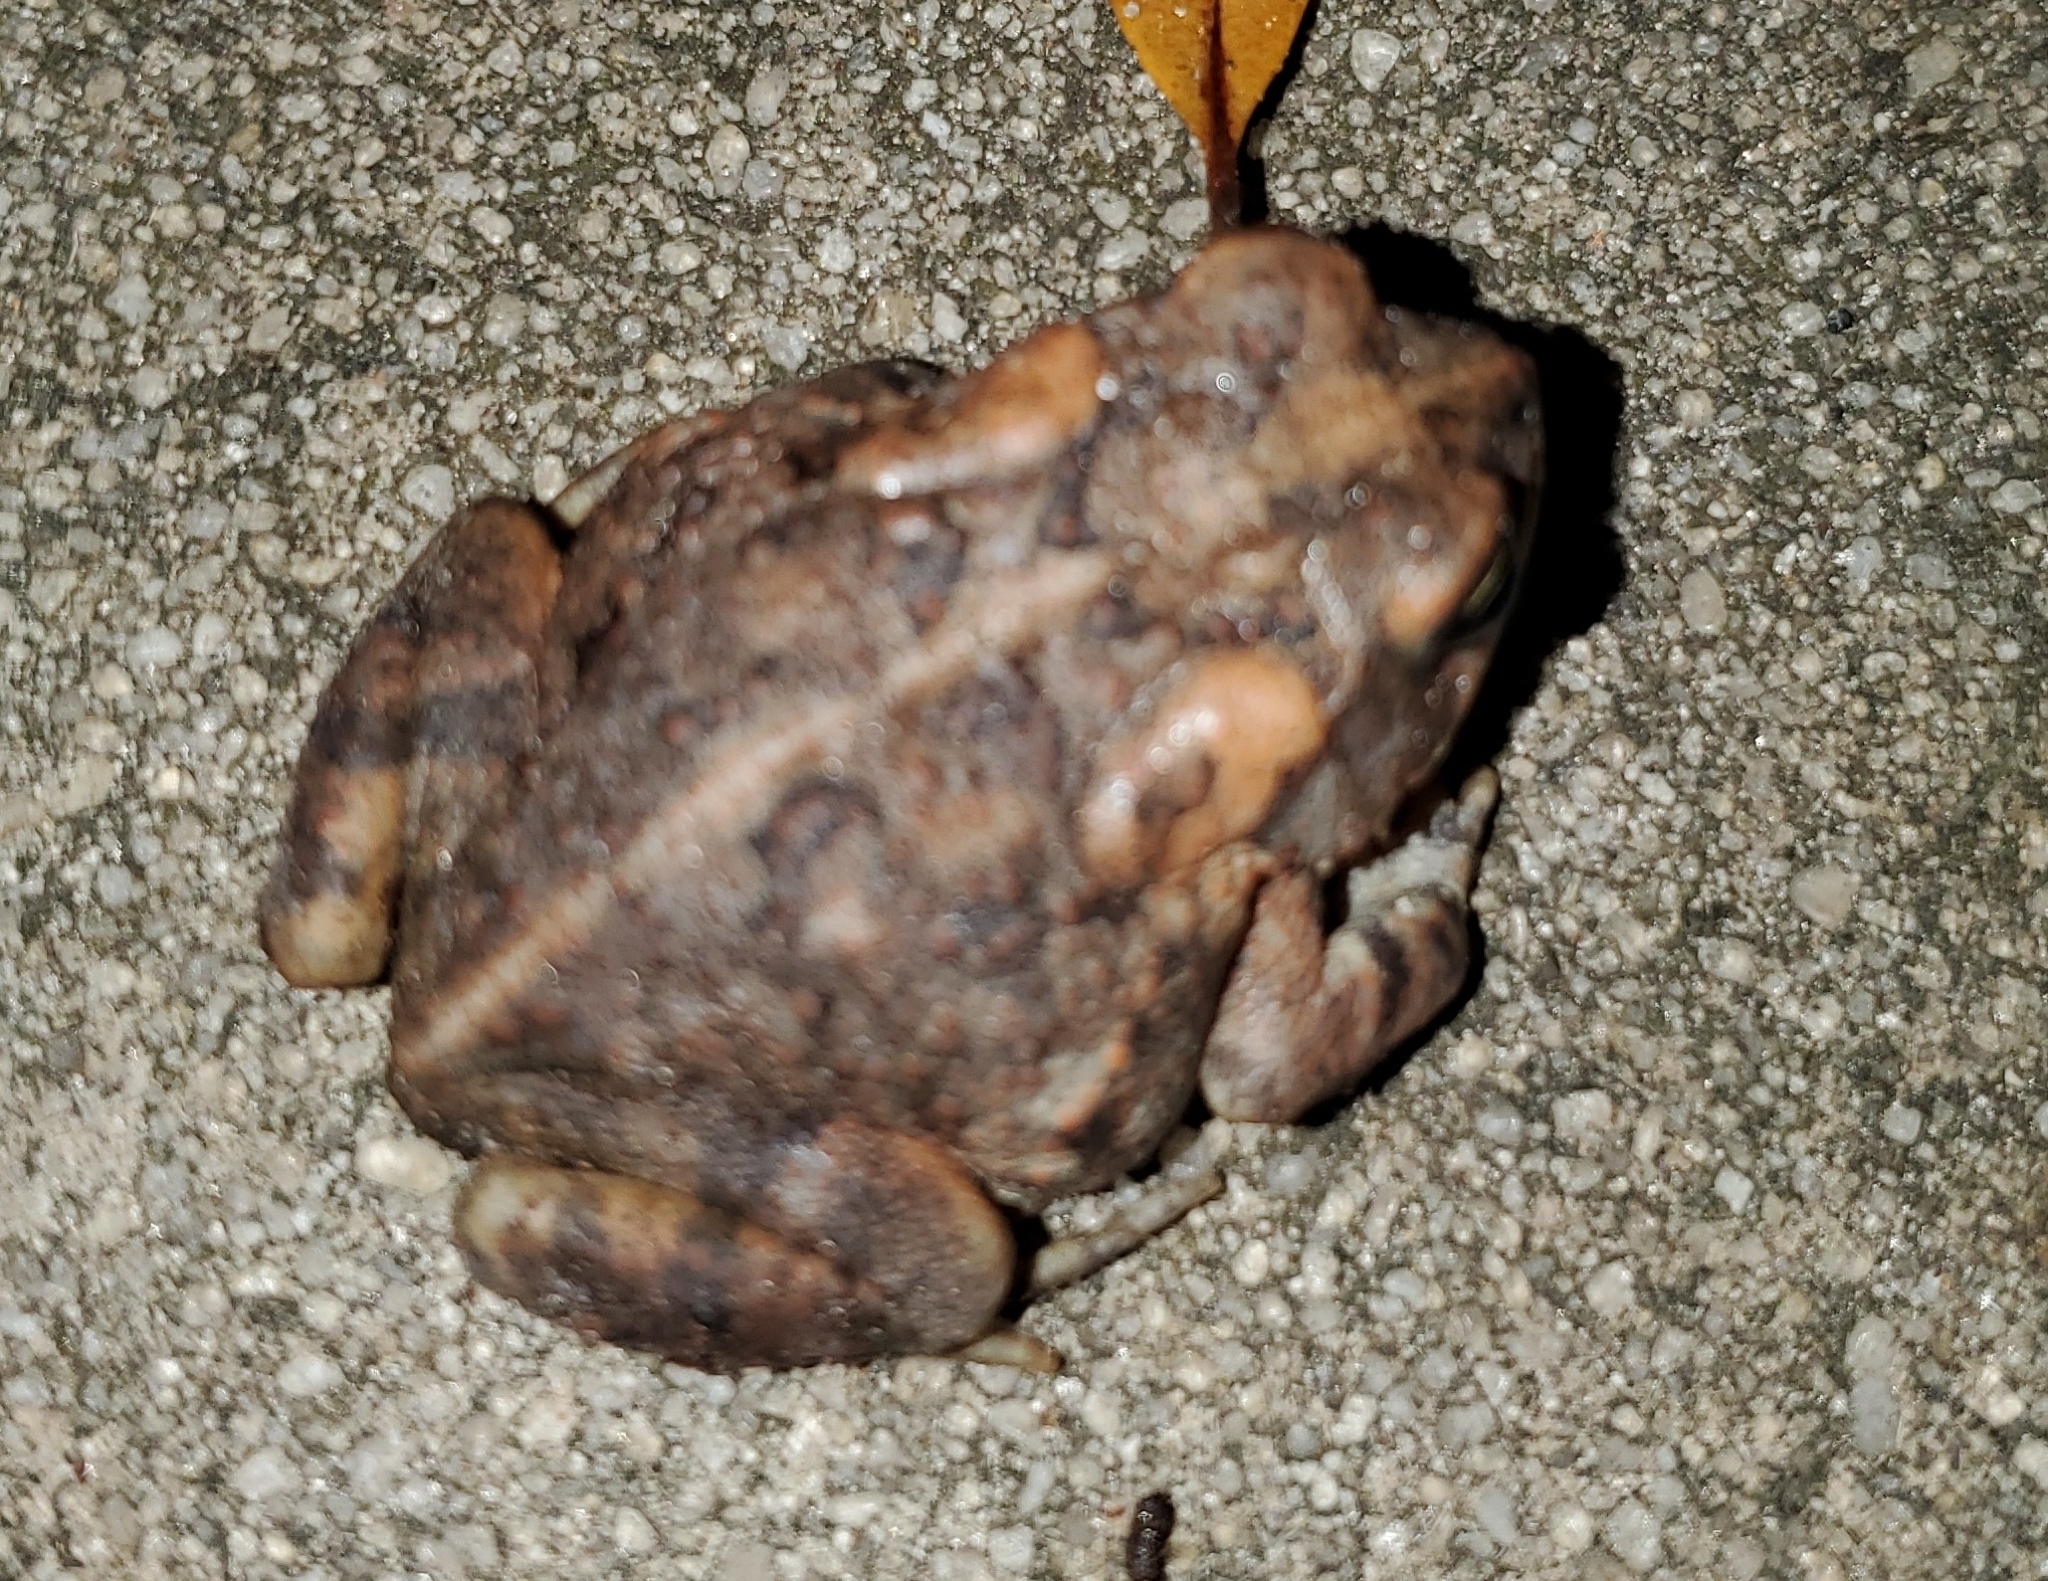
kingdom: Animalia
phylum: Chordata
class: Amphibia
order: Anura
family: Bufonidae
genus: Anaxyrus
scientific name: Anaxyrus terrestris
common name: Southern toad
